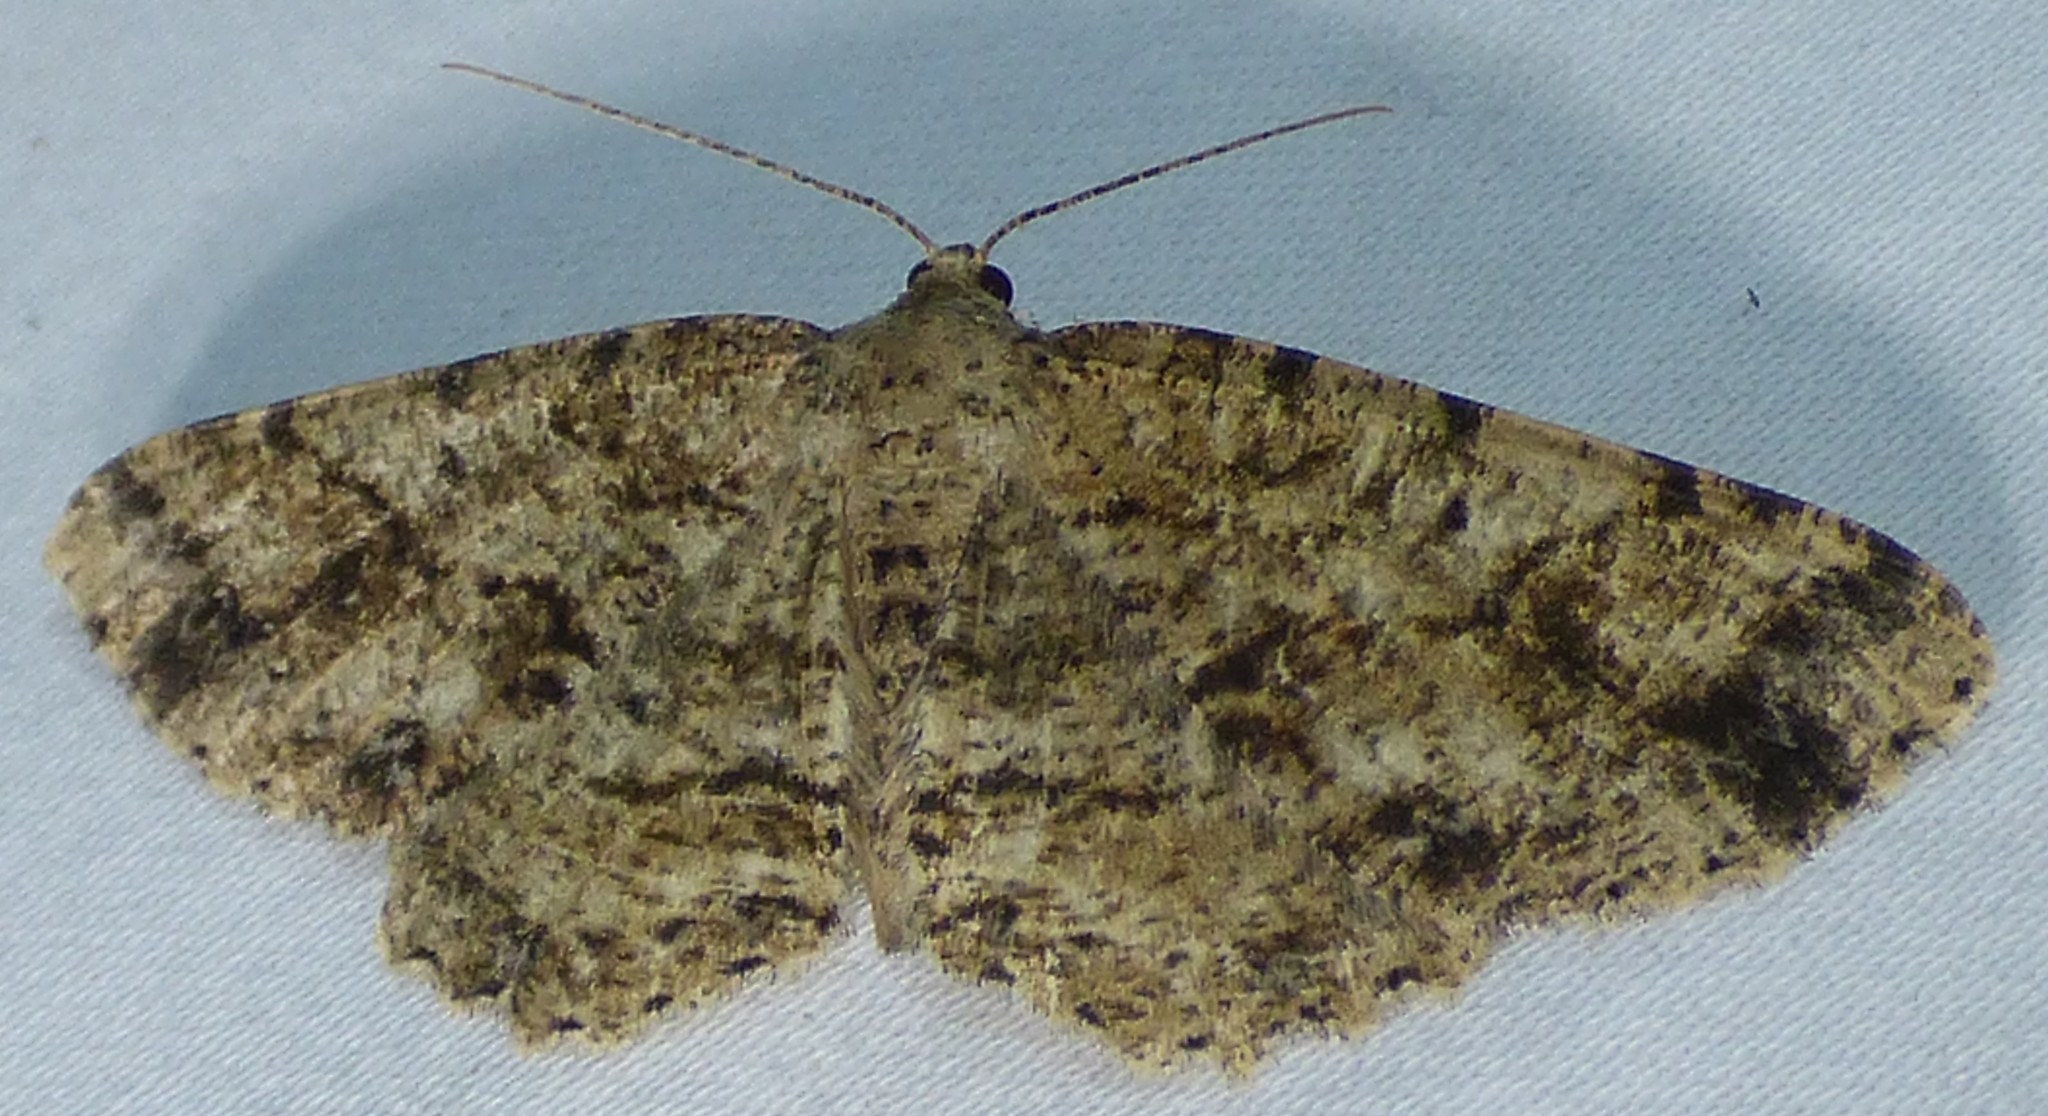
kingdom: Animalia
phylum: Arthropoda
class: Insecta
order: Lepidoptera
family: Geometridae
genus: Melanolophia
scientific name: Melanolophia canadaria
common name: Canadian melanolophia
